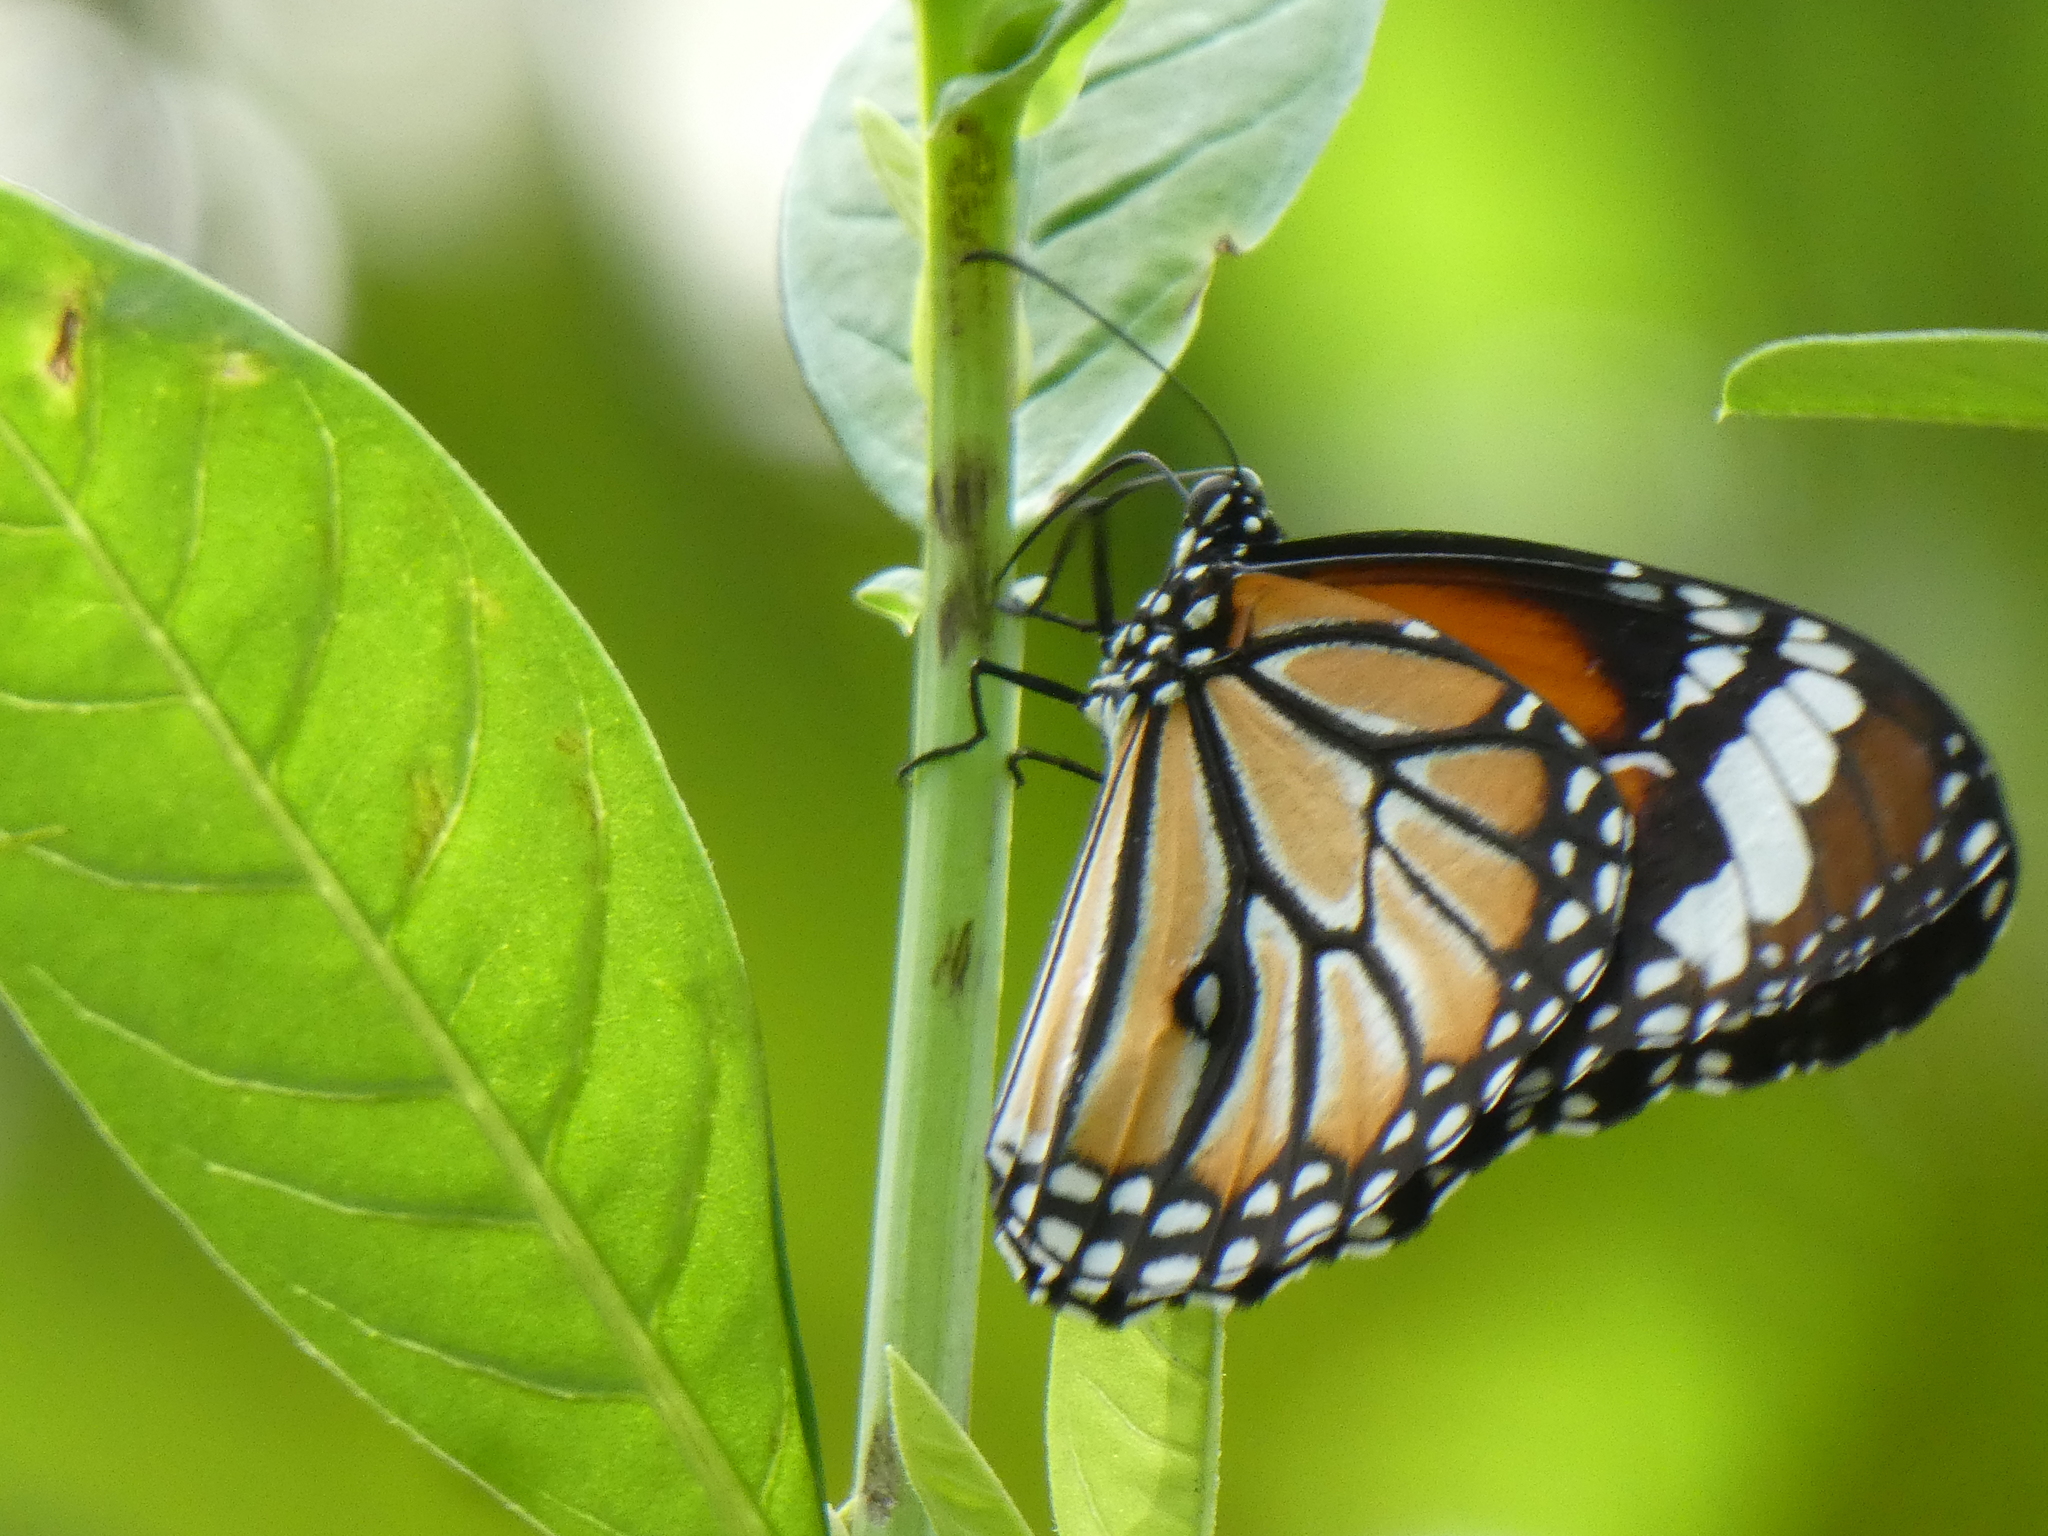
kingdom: Animalia
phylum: Arthropoda
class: Insecta
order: Lepidoptera
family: Nymphalidae
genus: Danaus
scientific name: Danaus genutia
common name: Common tiger butterfly
